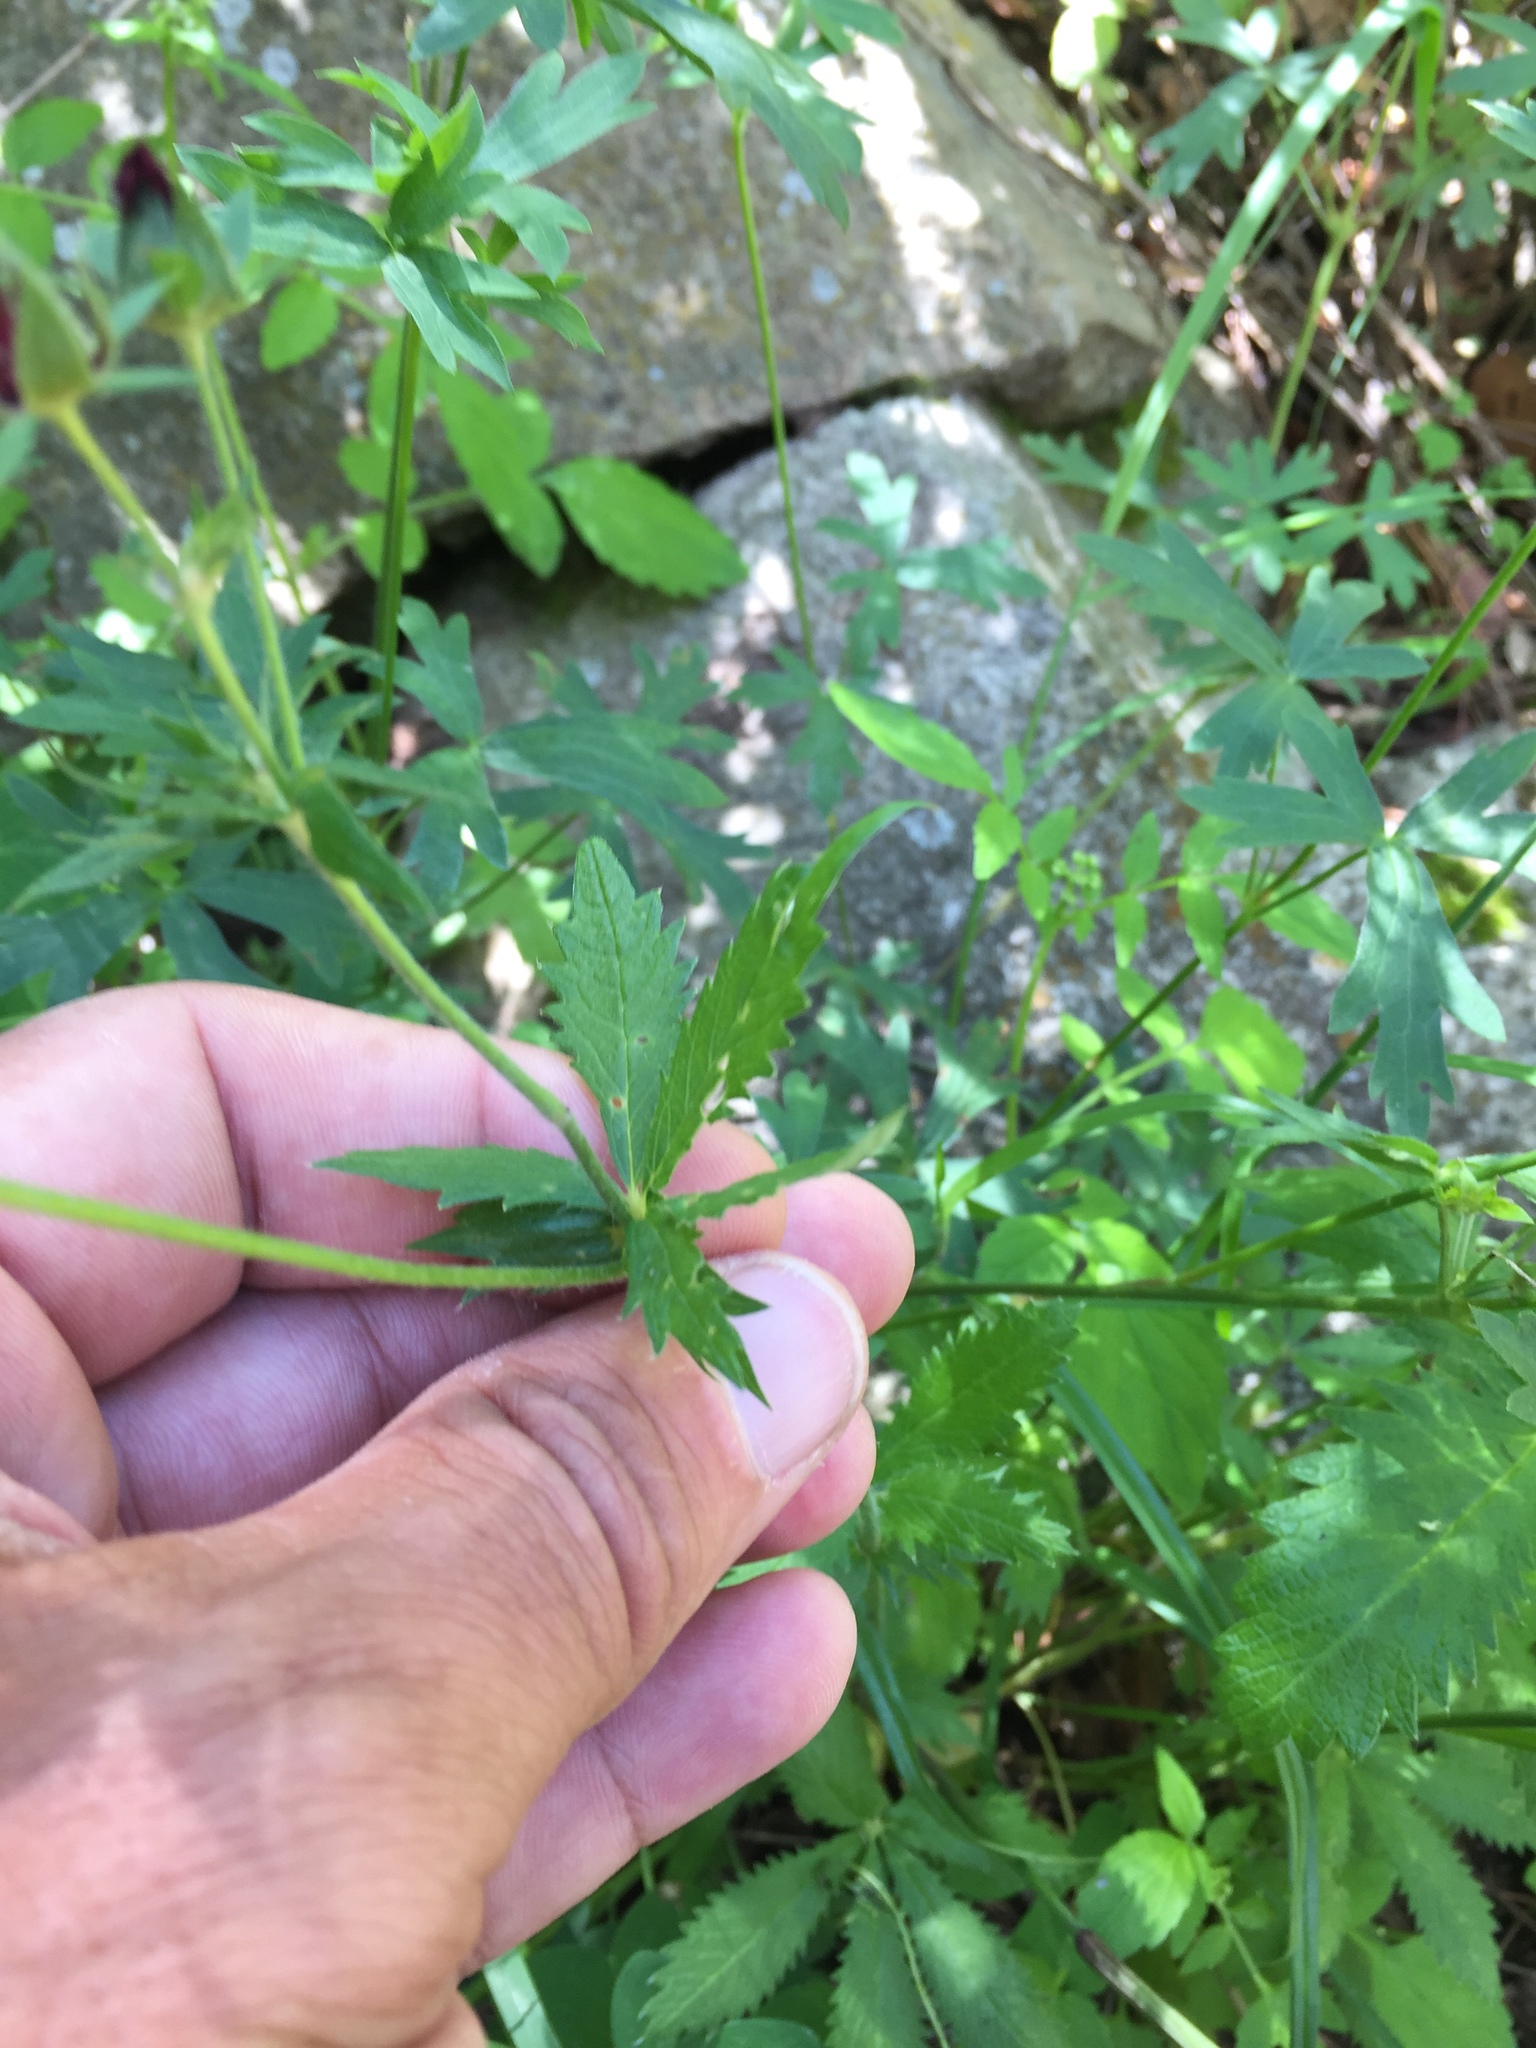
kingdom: Plantae
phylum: Tracheophyta
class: Magnoliopsida
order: Rosales
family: Rosaceae
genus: Potentilla
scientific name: Potentilla thurberi
